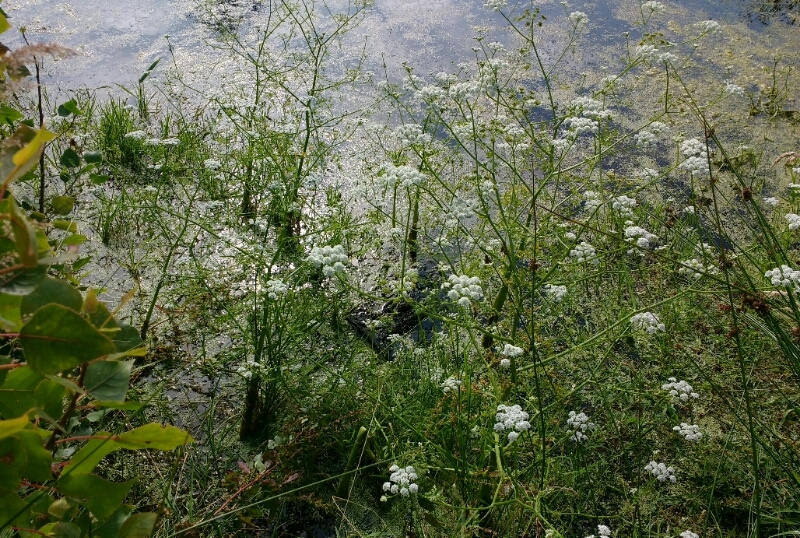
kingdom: Plantae
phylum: Tracheophyta
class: Magnoliopsida
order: Apiales
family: Apiaceae
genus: Oenanthe
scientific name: Oenanthe aquatica
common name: Fine-leaved water-dropwort
